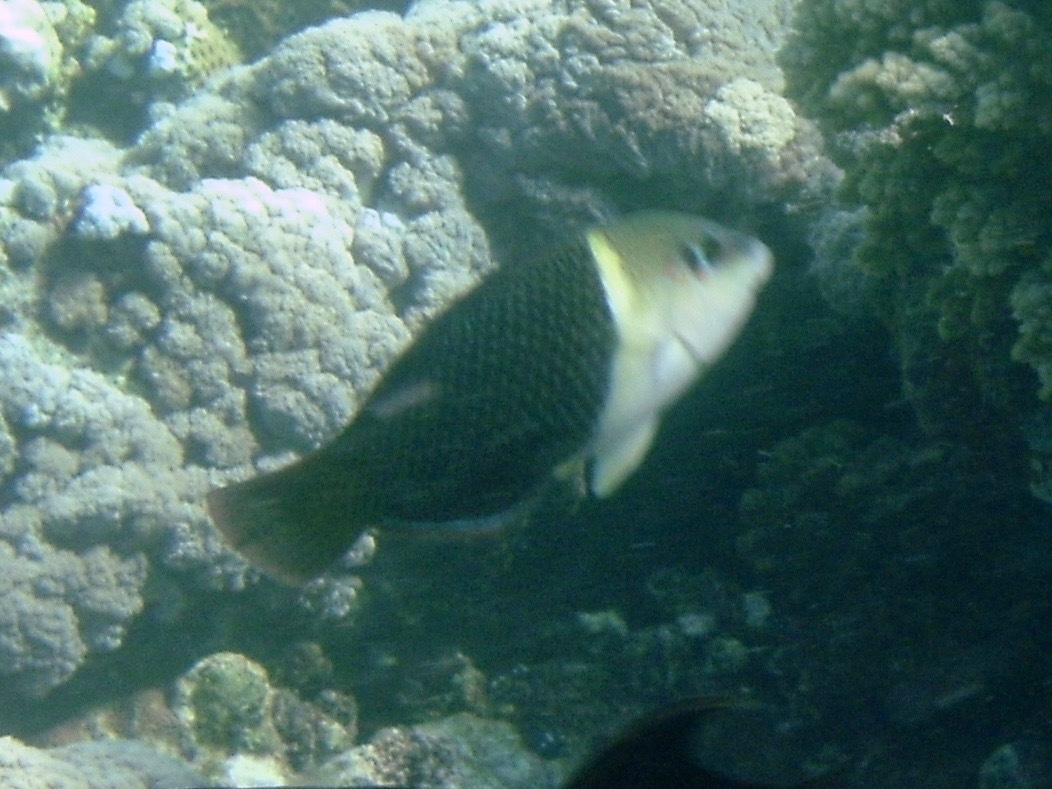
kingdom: Animalia
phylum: Chordata
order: Perciformes
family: Labridae
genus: Hemigymnus
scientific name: Hemigymnus melapterus
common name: Blackeye thicklip
